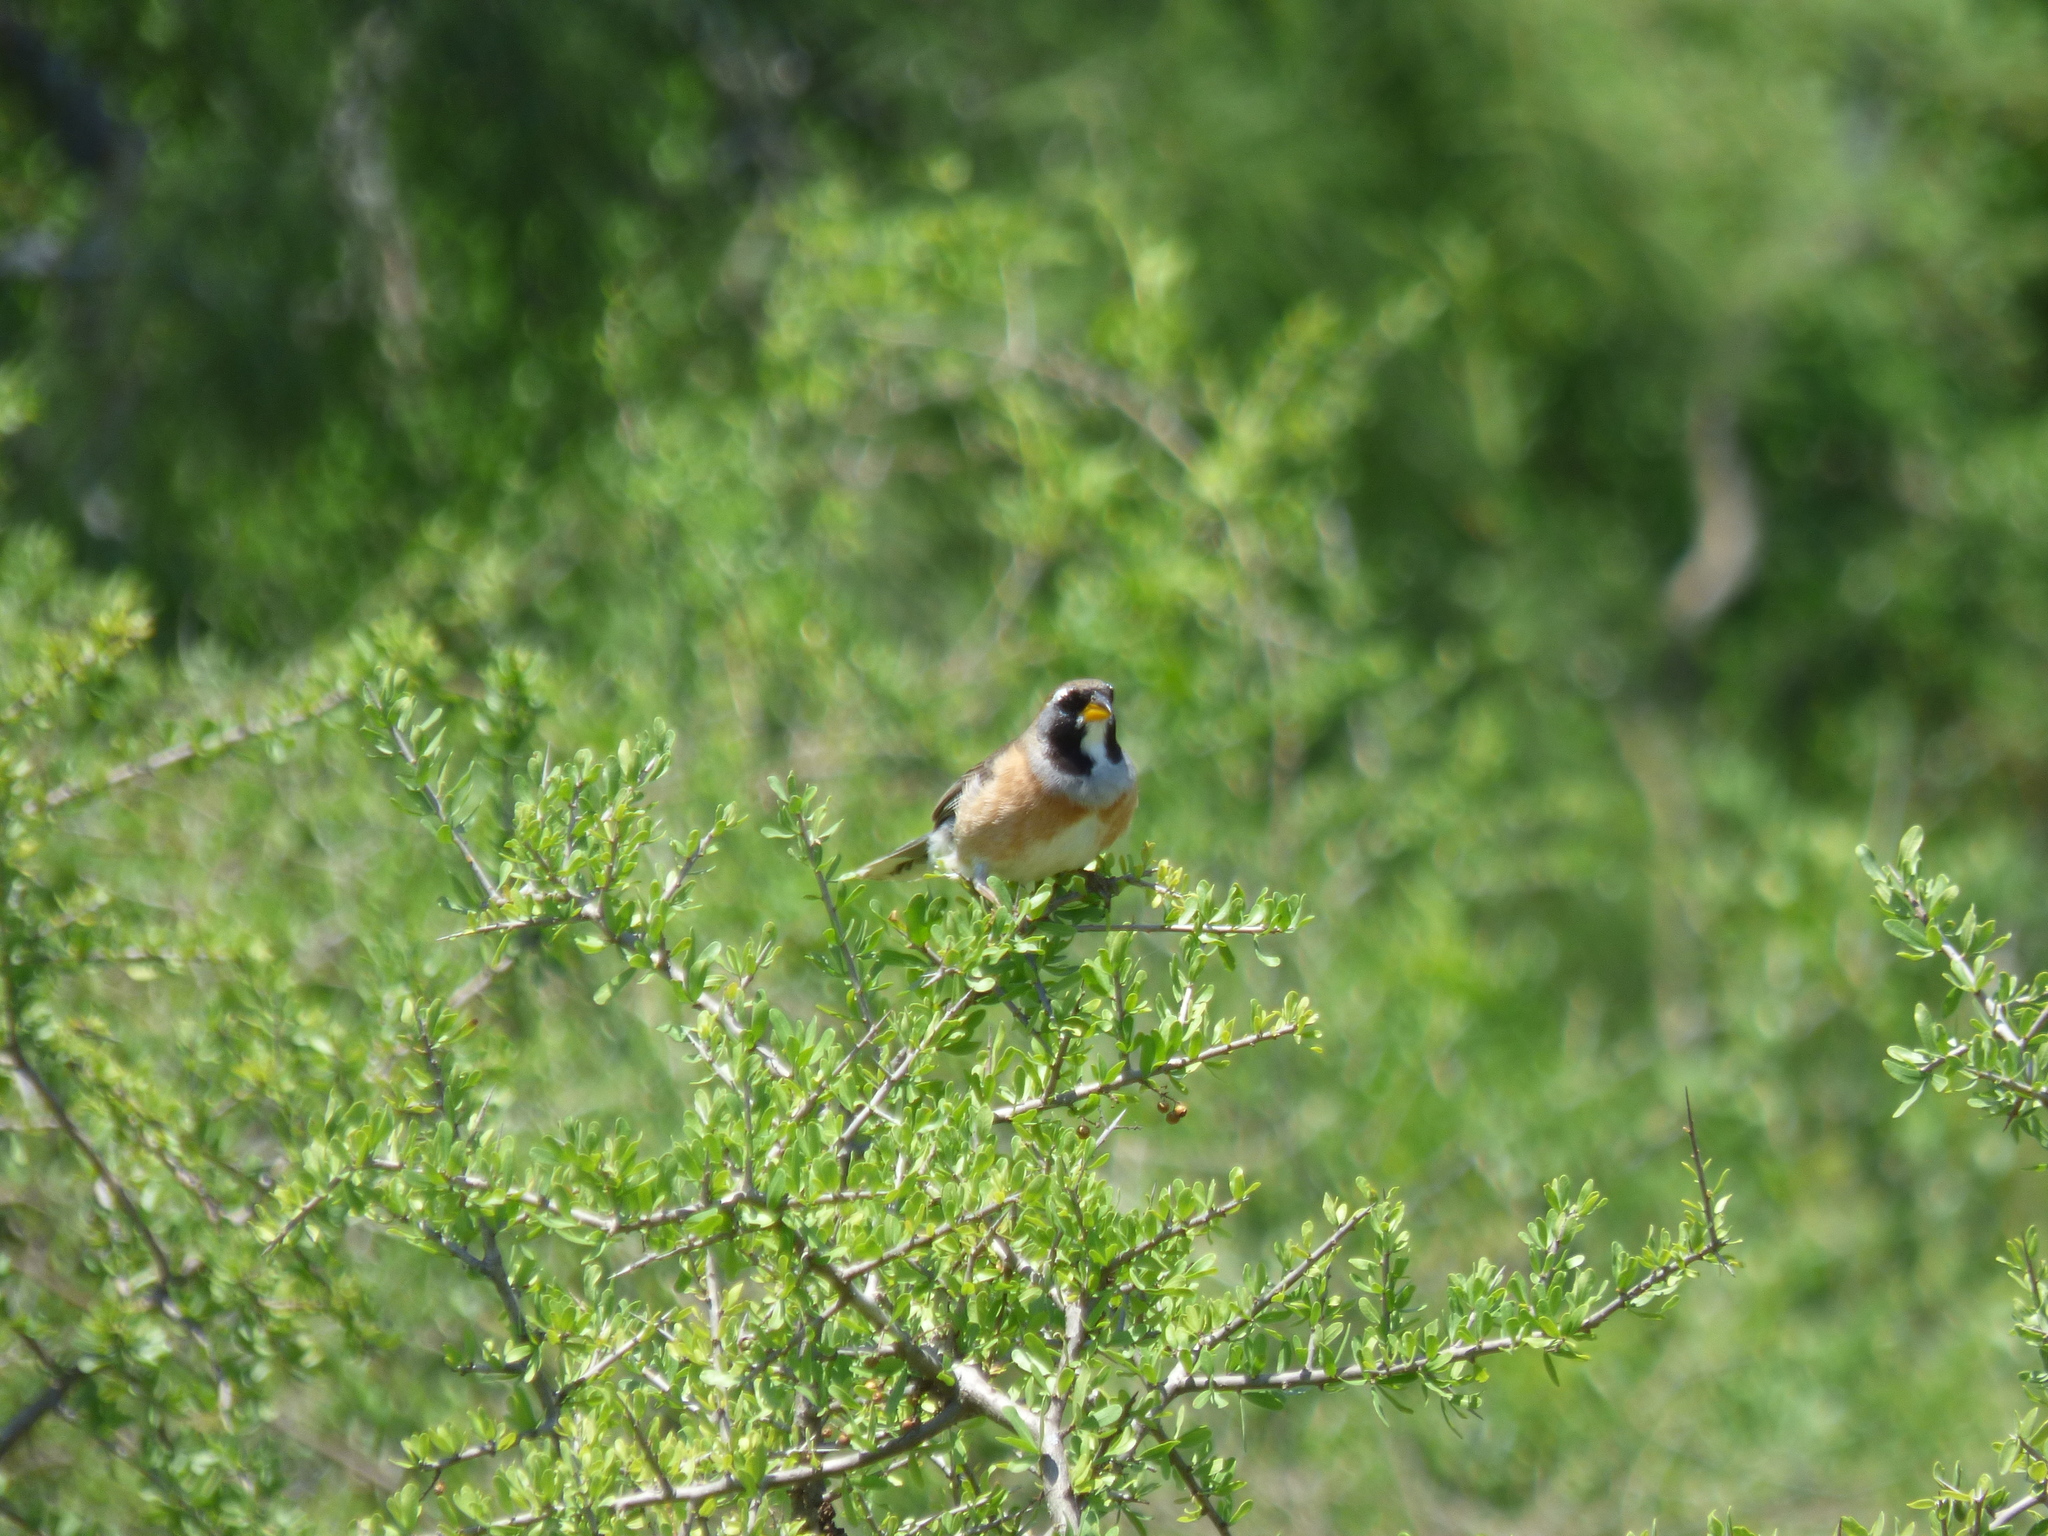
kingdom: Animalia
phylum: Chordata
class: Aves
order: Passeriformes
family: Thraupidae
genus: Saltatricula
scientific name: Saltatricula multicolor
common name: Many-colored chaco finch
